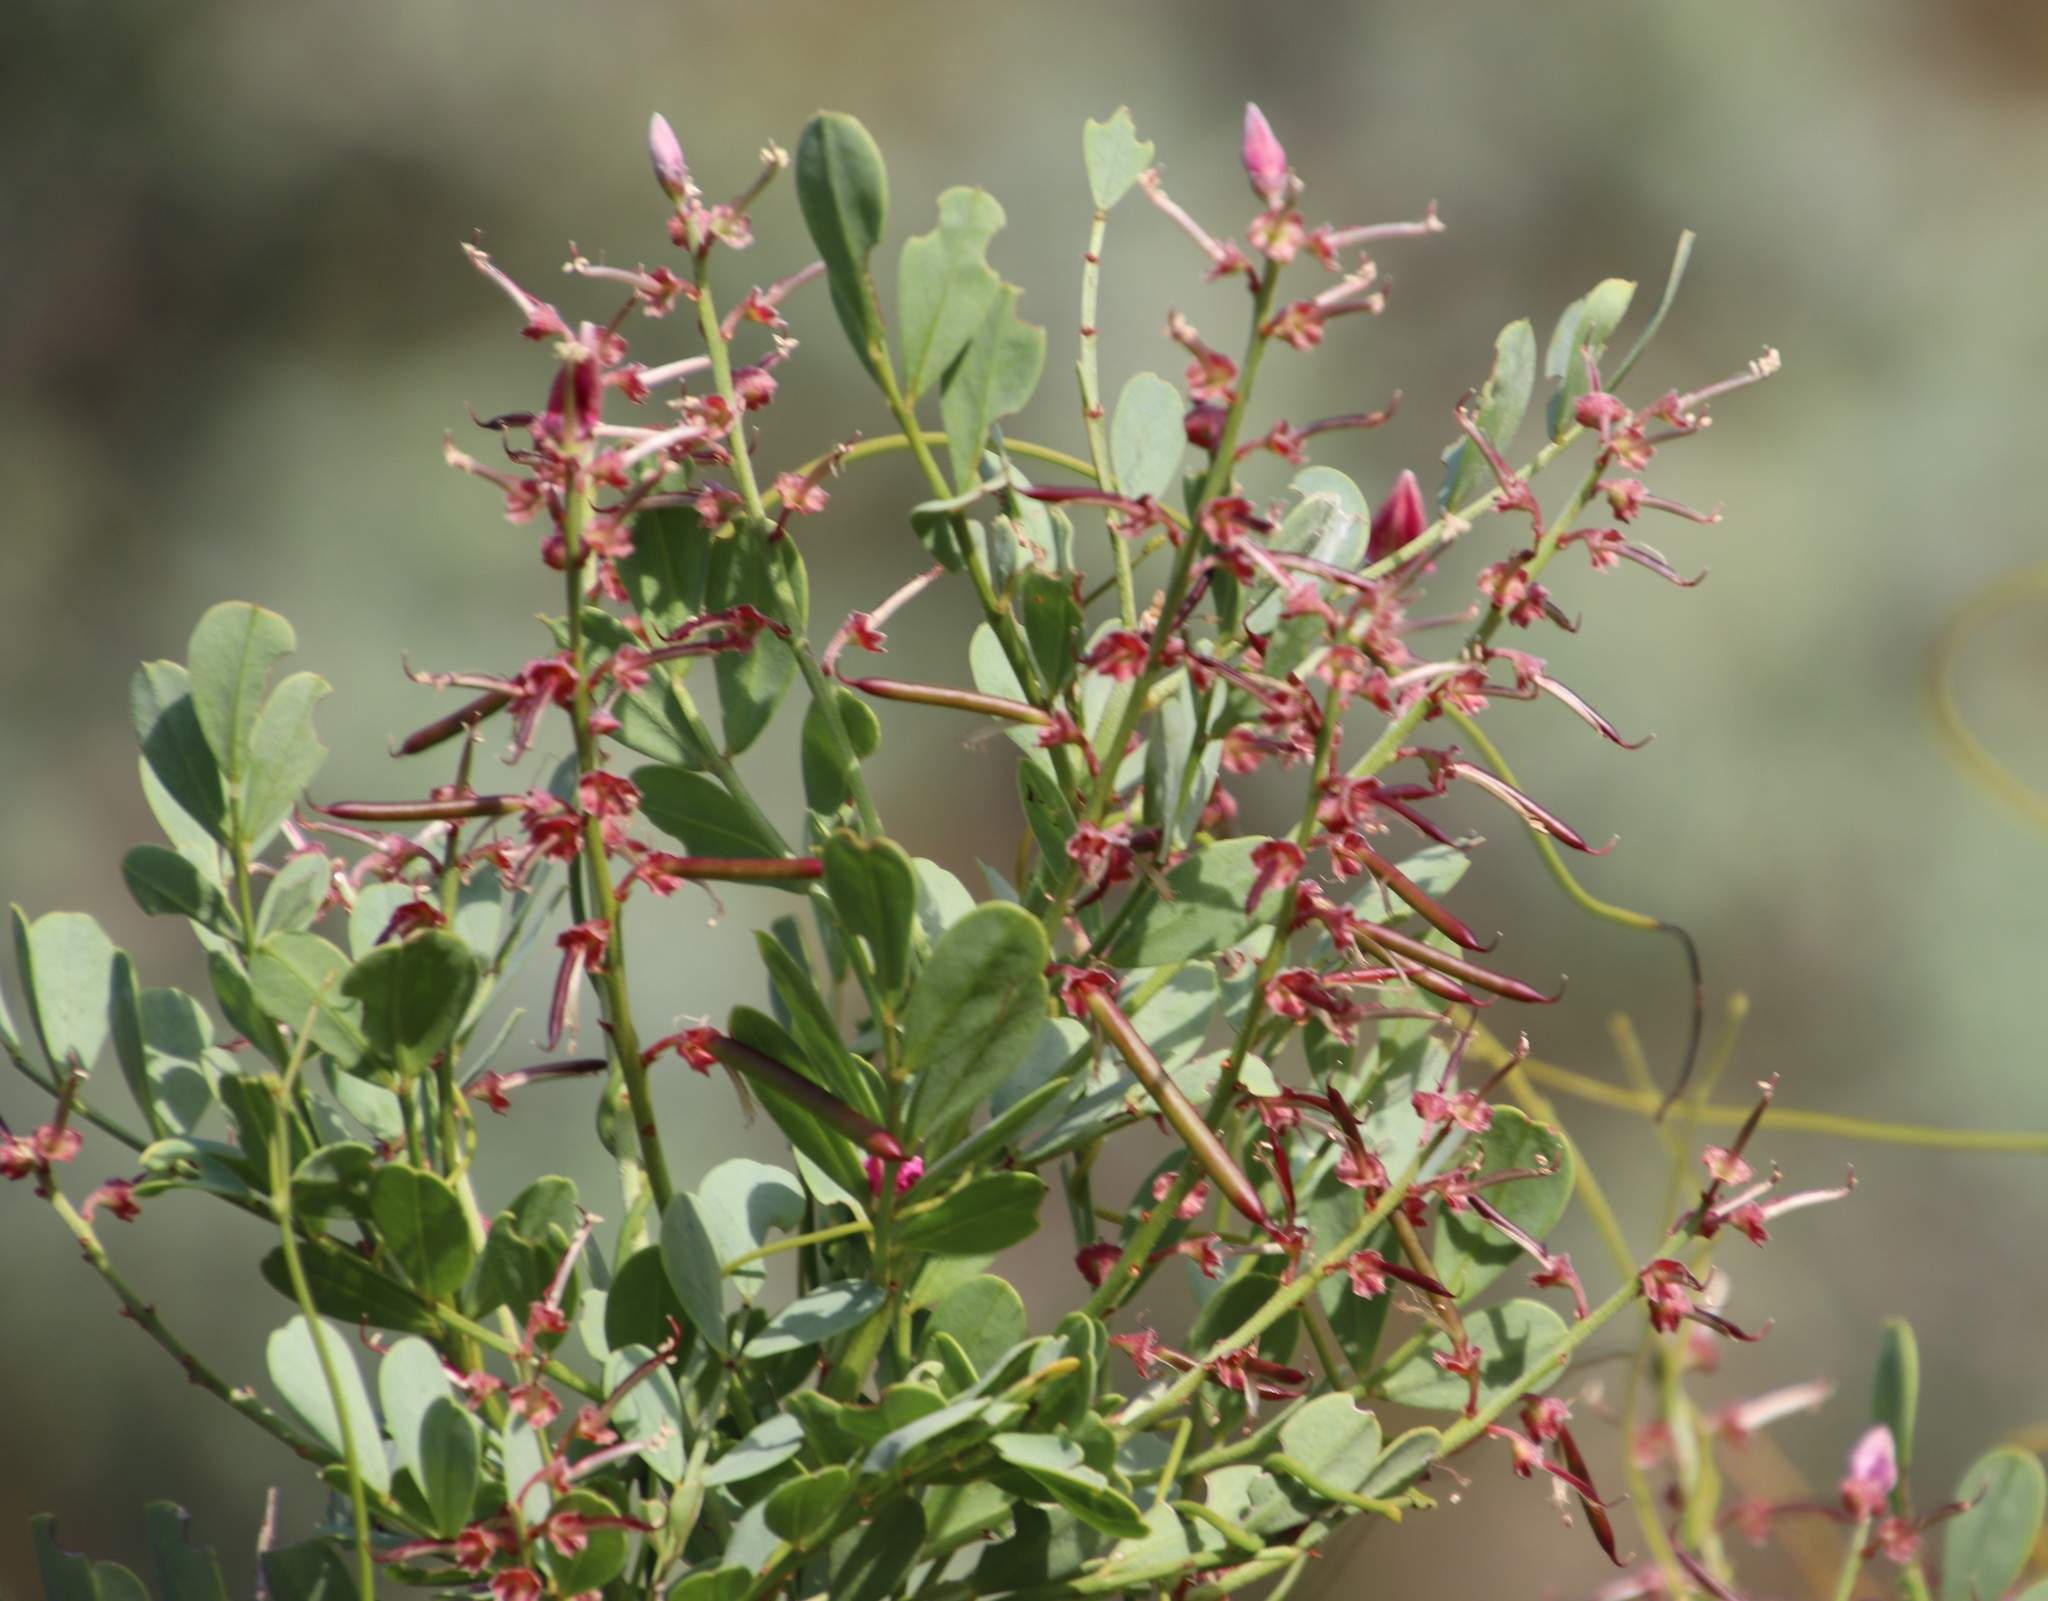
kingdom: Plantae
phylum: Tracheophyta
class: Magnoliopsida
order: Fabales
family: Fabaceae
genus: Indigofera
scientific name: Indigofera frutescens
